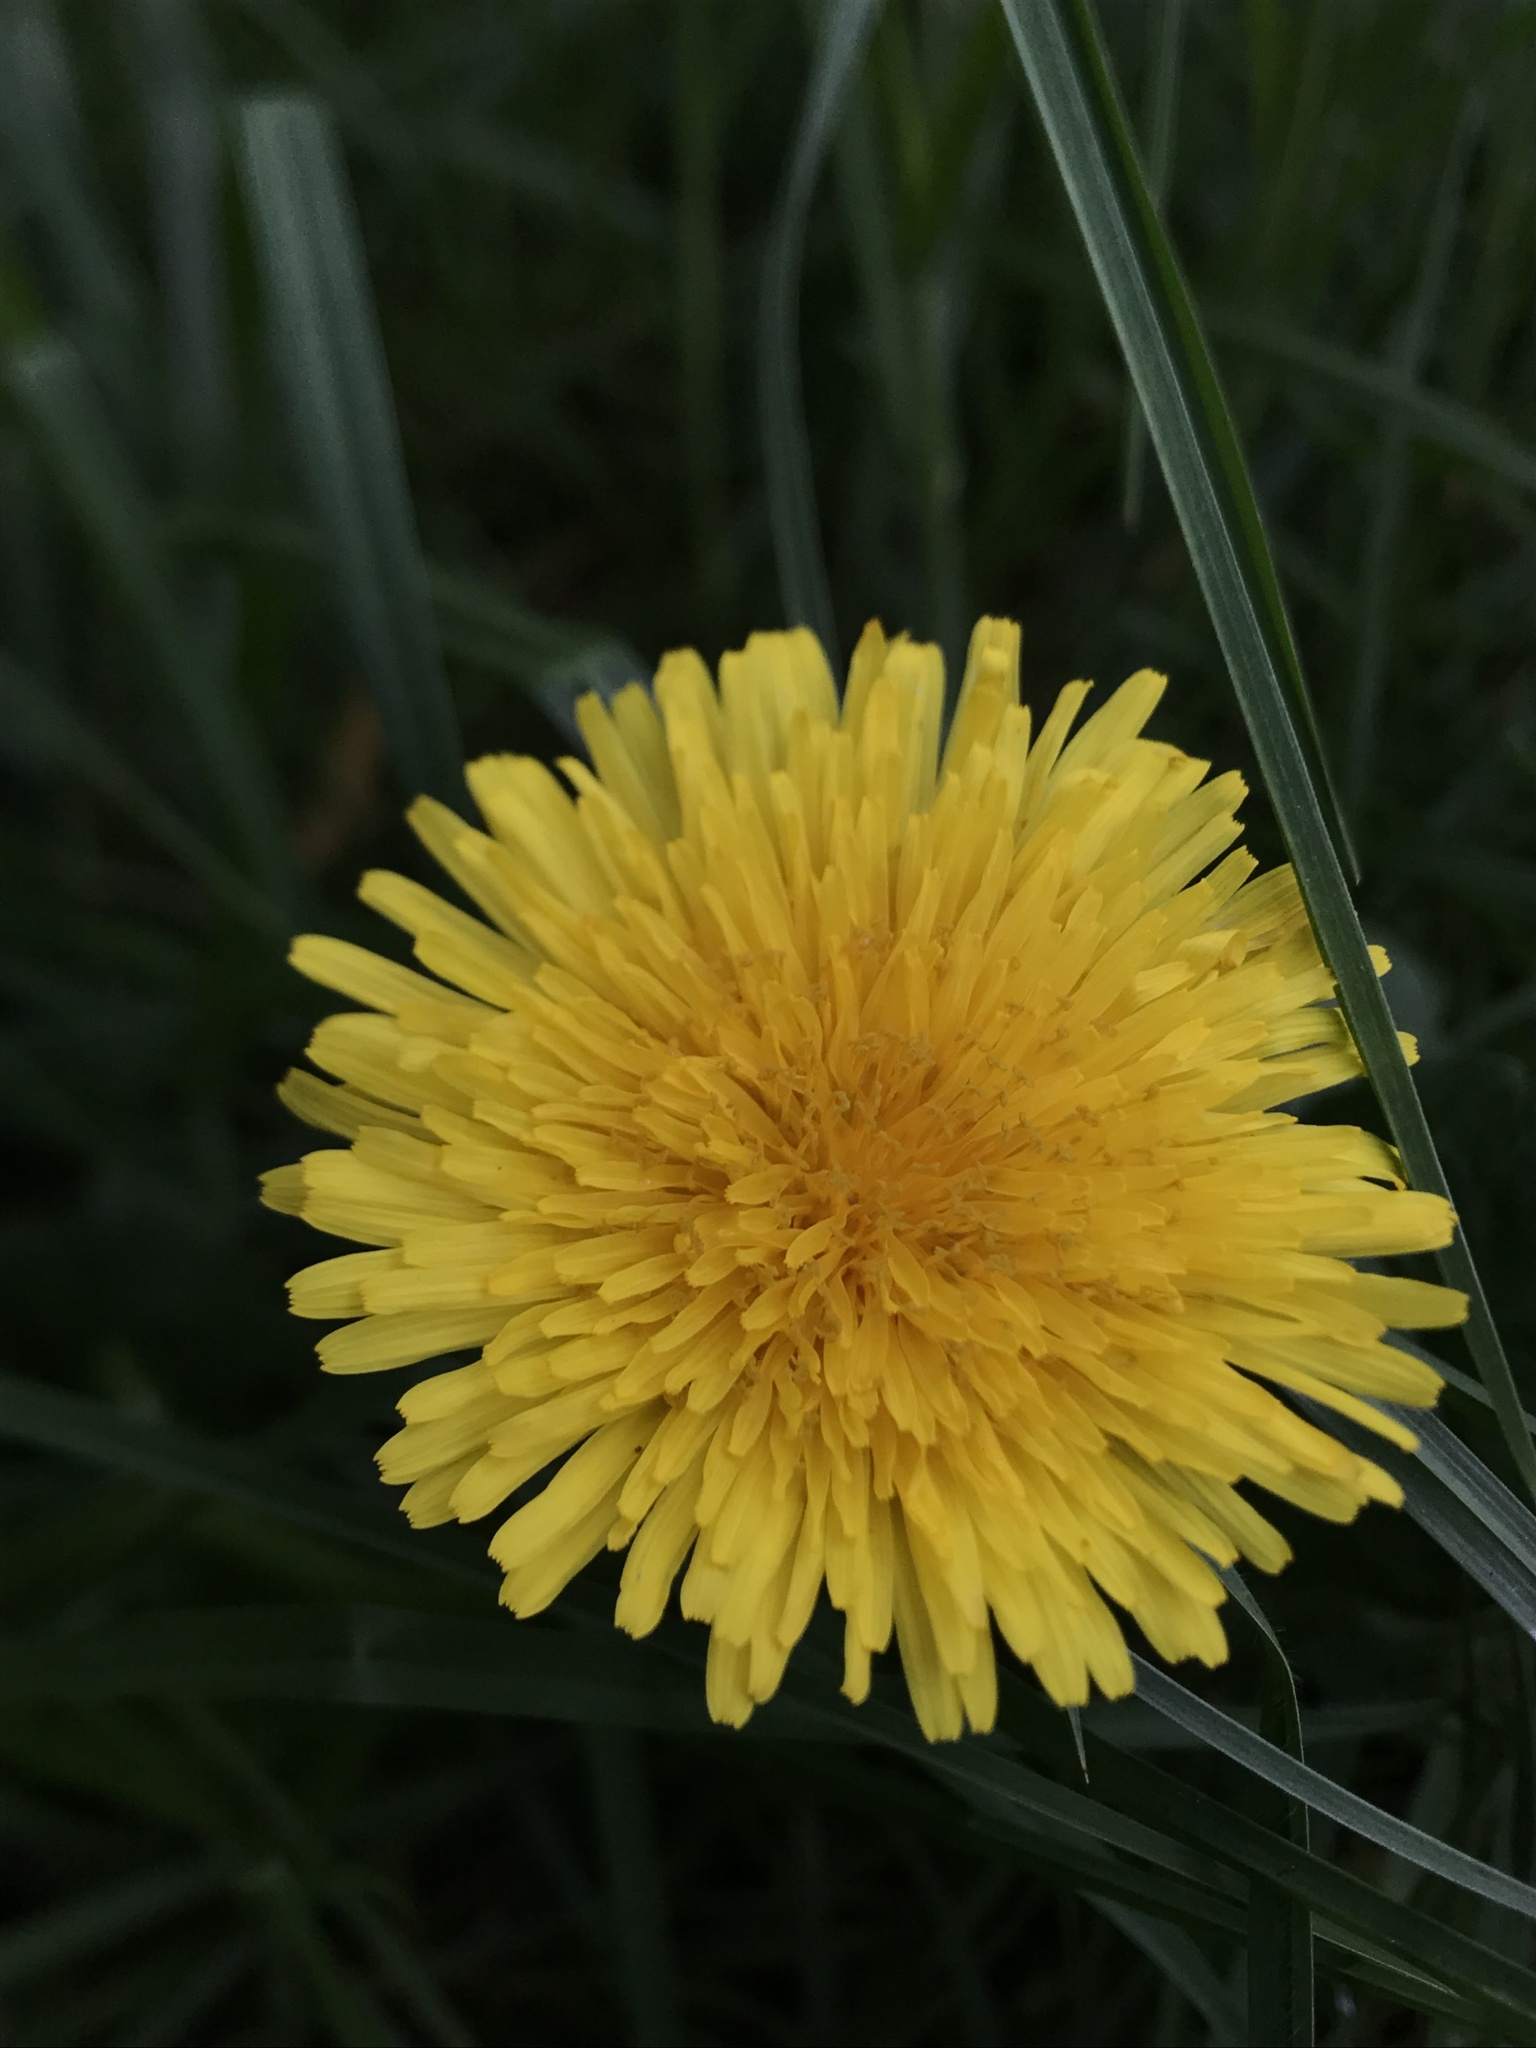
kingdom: Plantae
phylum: Tracheophyta
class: Magnoliopsida
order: Asterales
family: Asteraceae
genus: Taraxacum
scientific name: Taraxacum officinale
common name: Common dandelion
